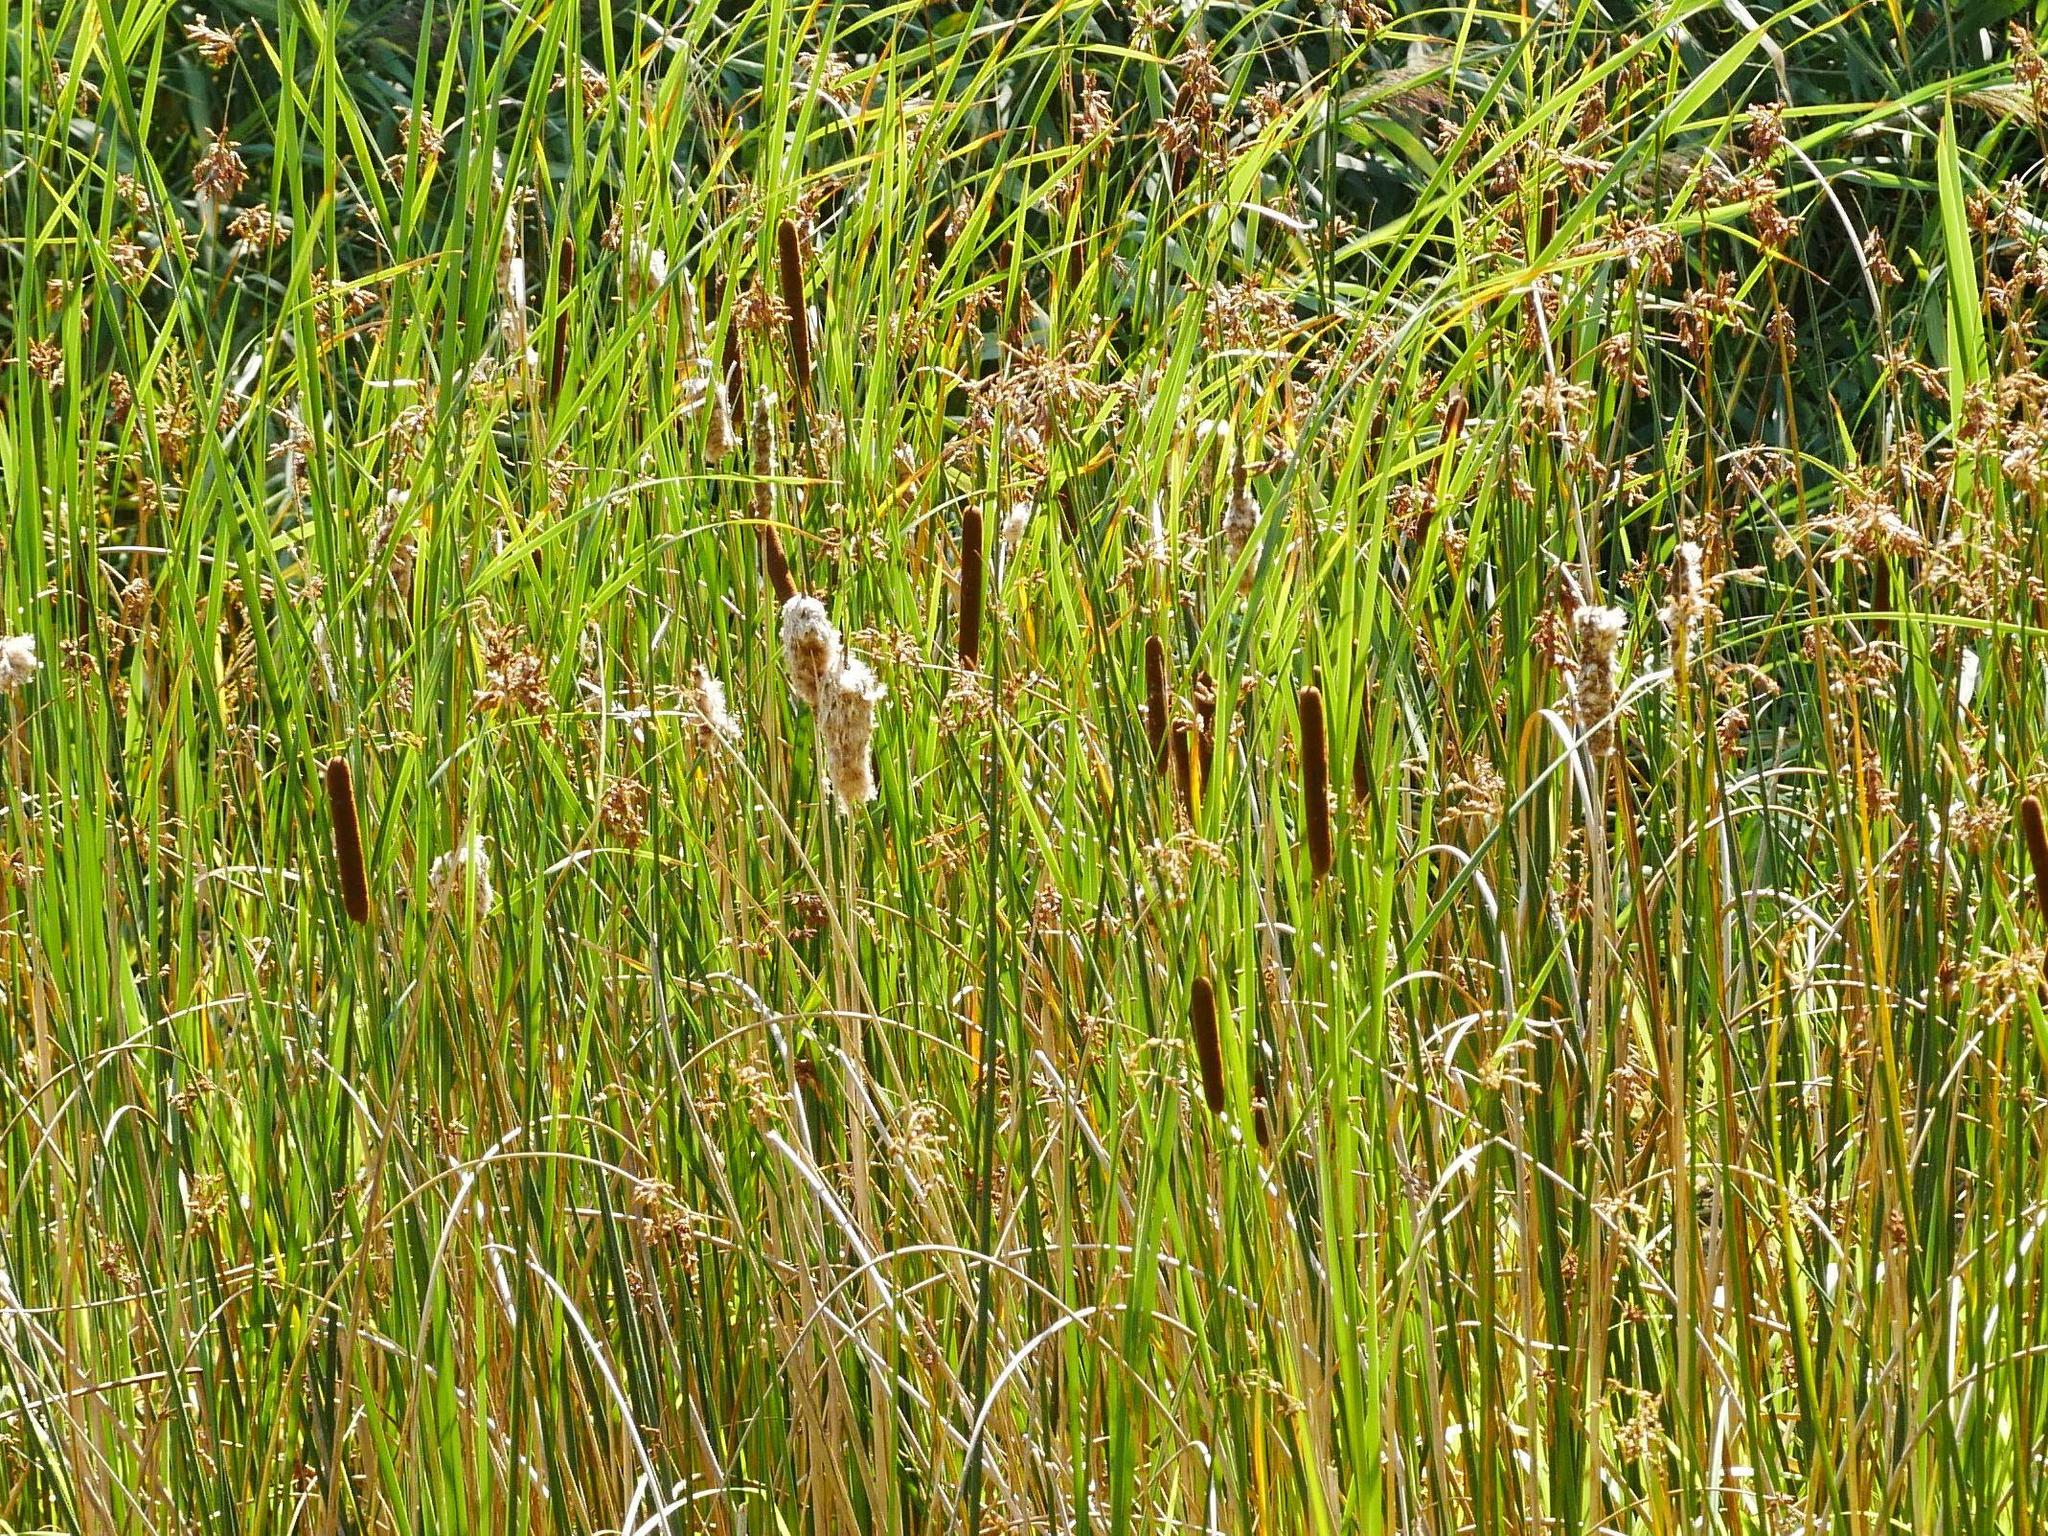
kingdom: Plantae
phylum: Tracheophyta
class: Liliopsida
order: Poales
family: Typhaceae
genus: Typha
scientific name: Typha angustifolia
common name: Lesser bulrush
